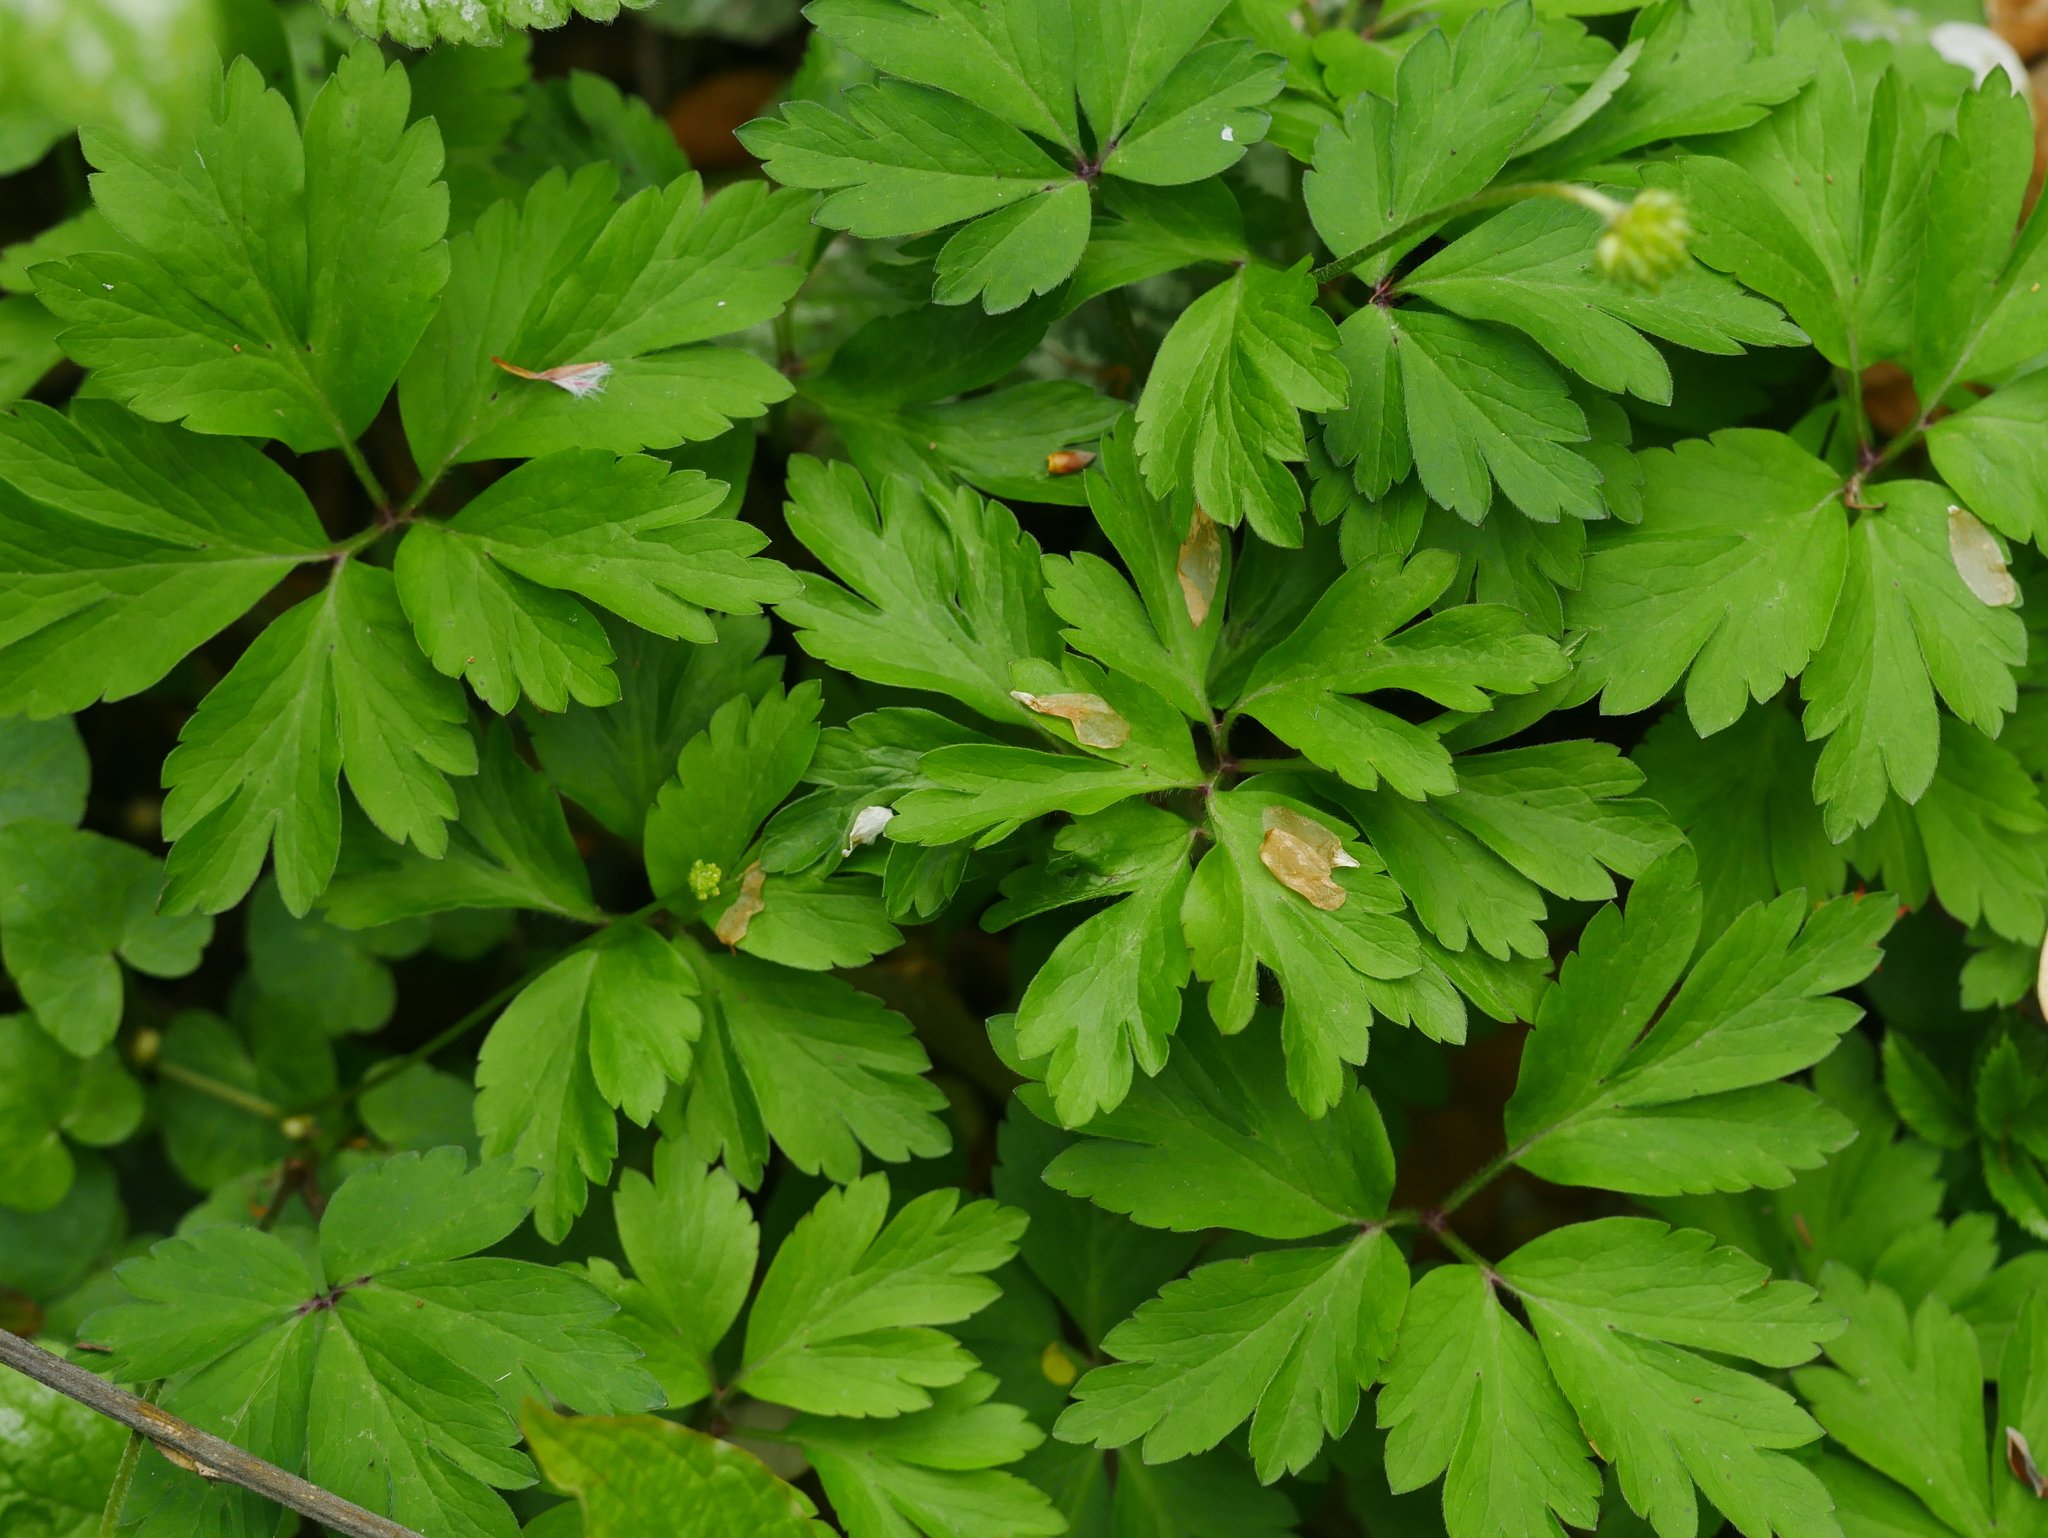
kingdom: Plantae
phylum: Tracheophyta
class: Magnoliopsida
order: Ranunculales
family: Ranunculaceae
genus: Anemone
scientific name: Anemone nemorosa
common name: Wood anemone
